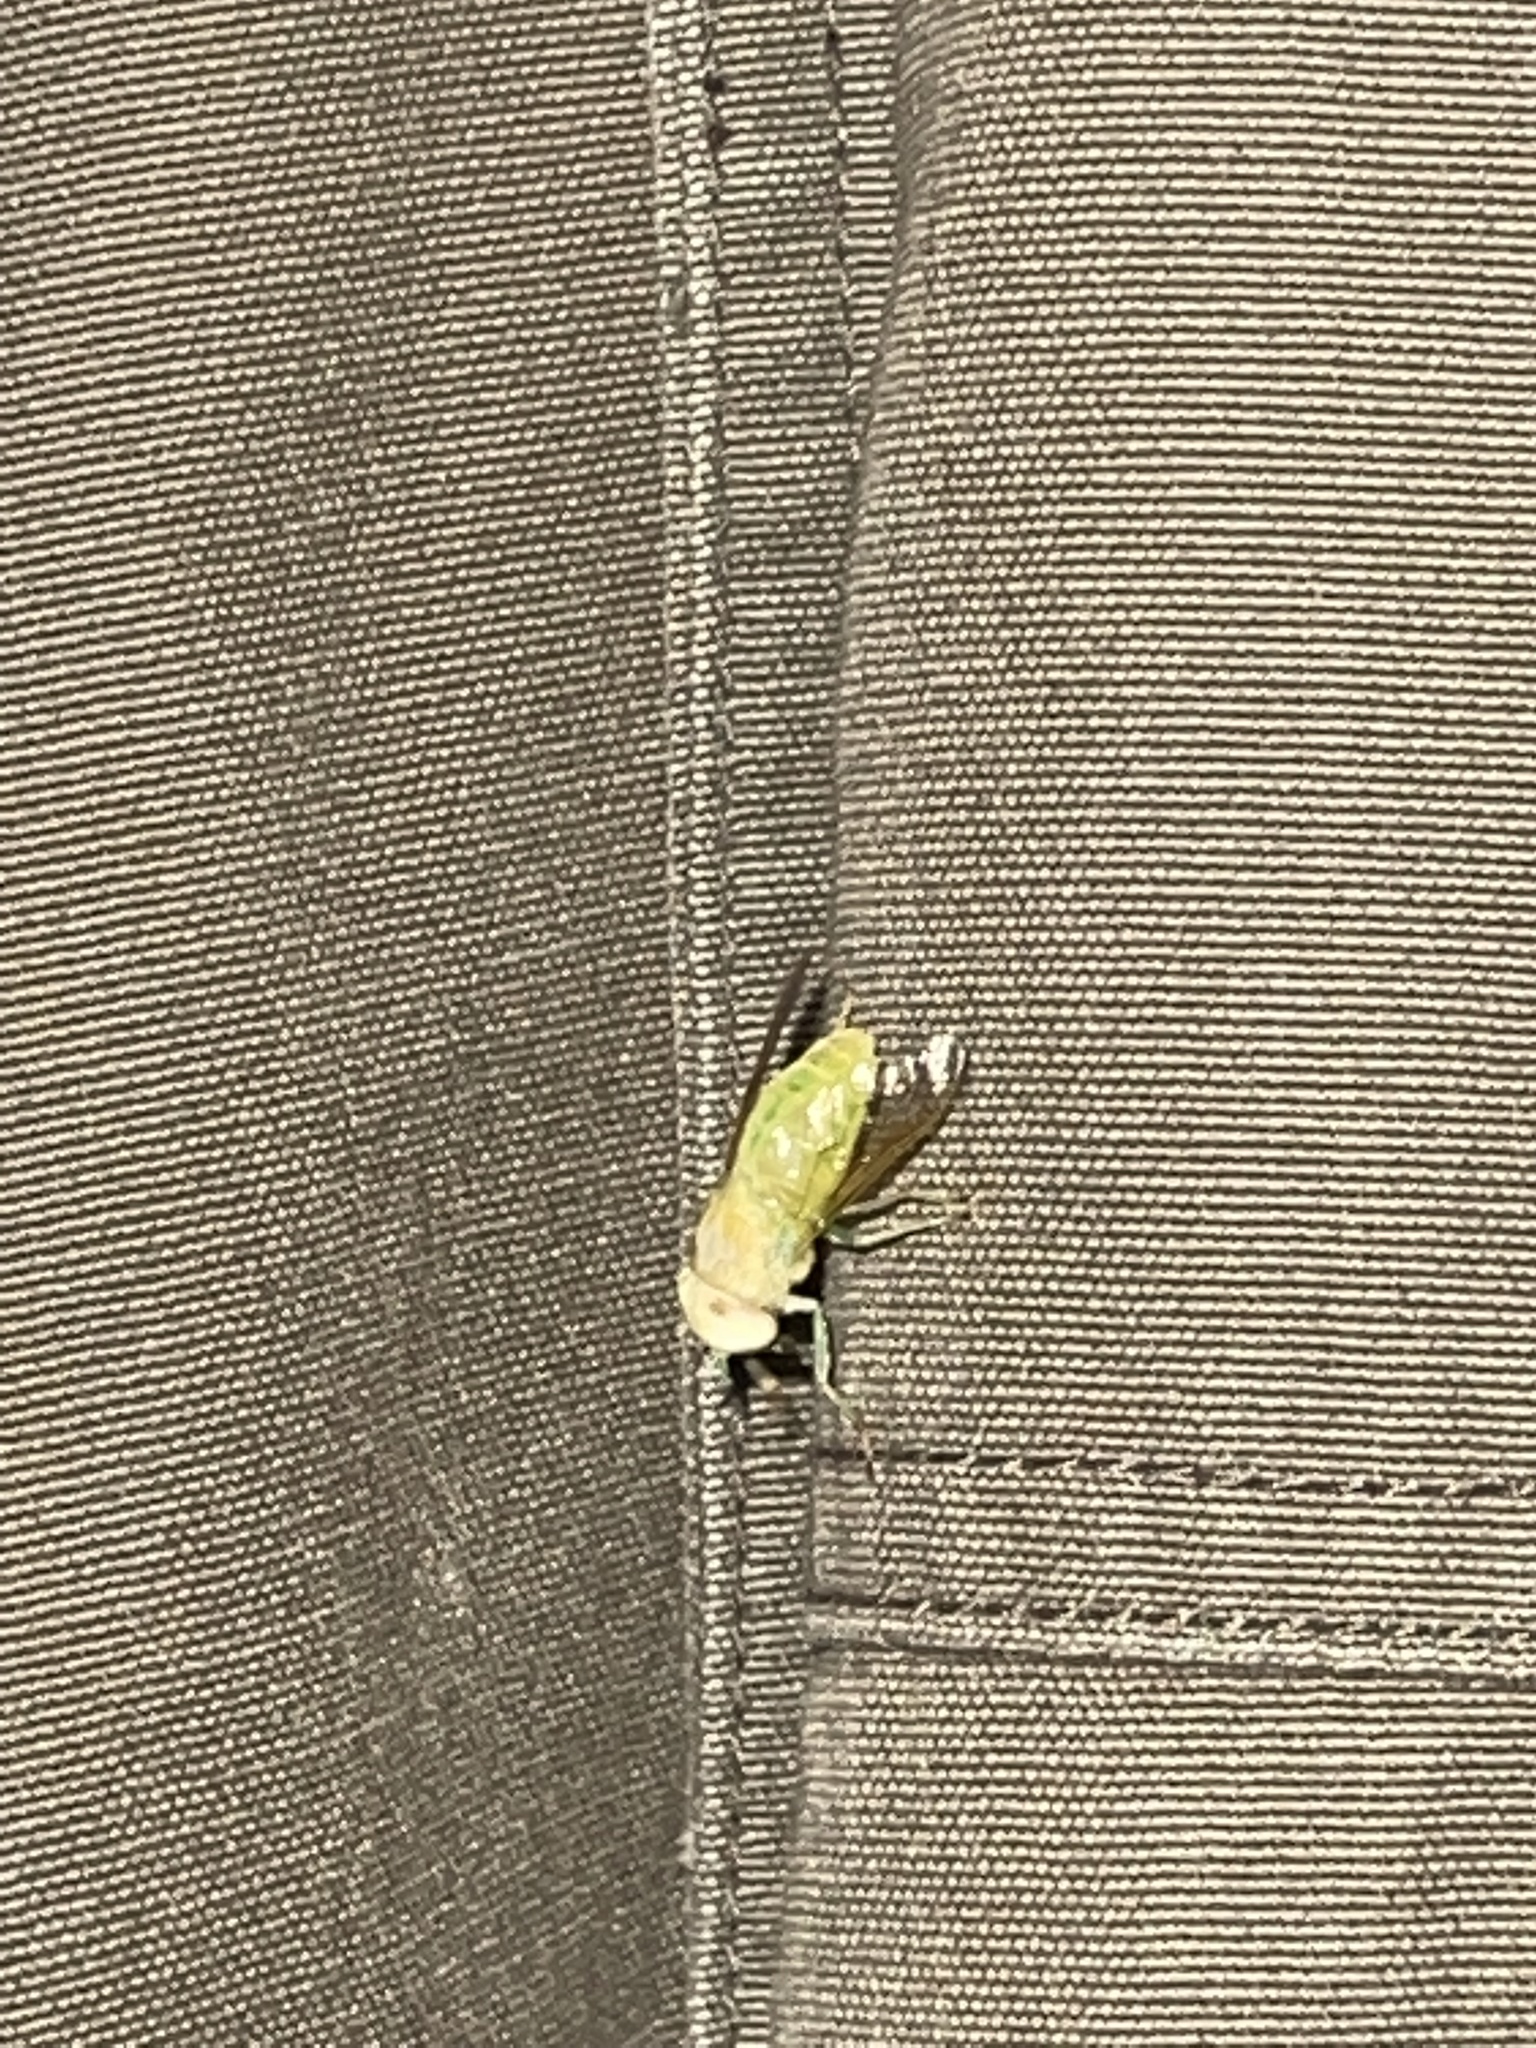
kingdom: Animalia
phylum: Arthropoda
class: Insecta
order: Diptera
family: Tabanidae
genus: Chlorotabanus
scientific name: Chlorotabanus crepuscularis
